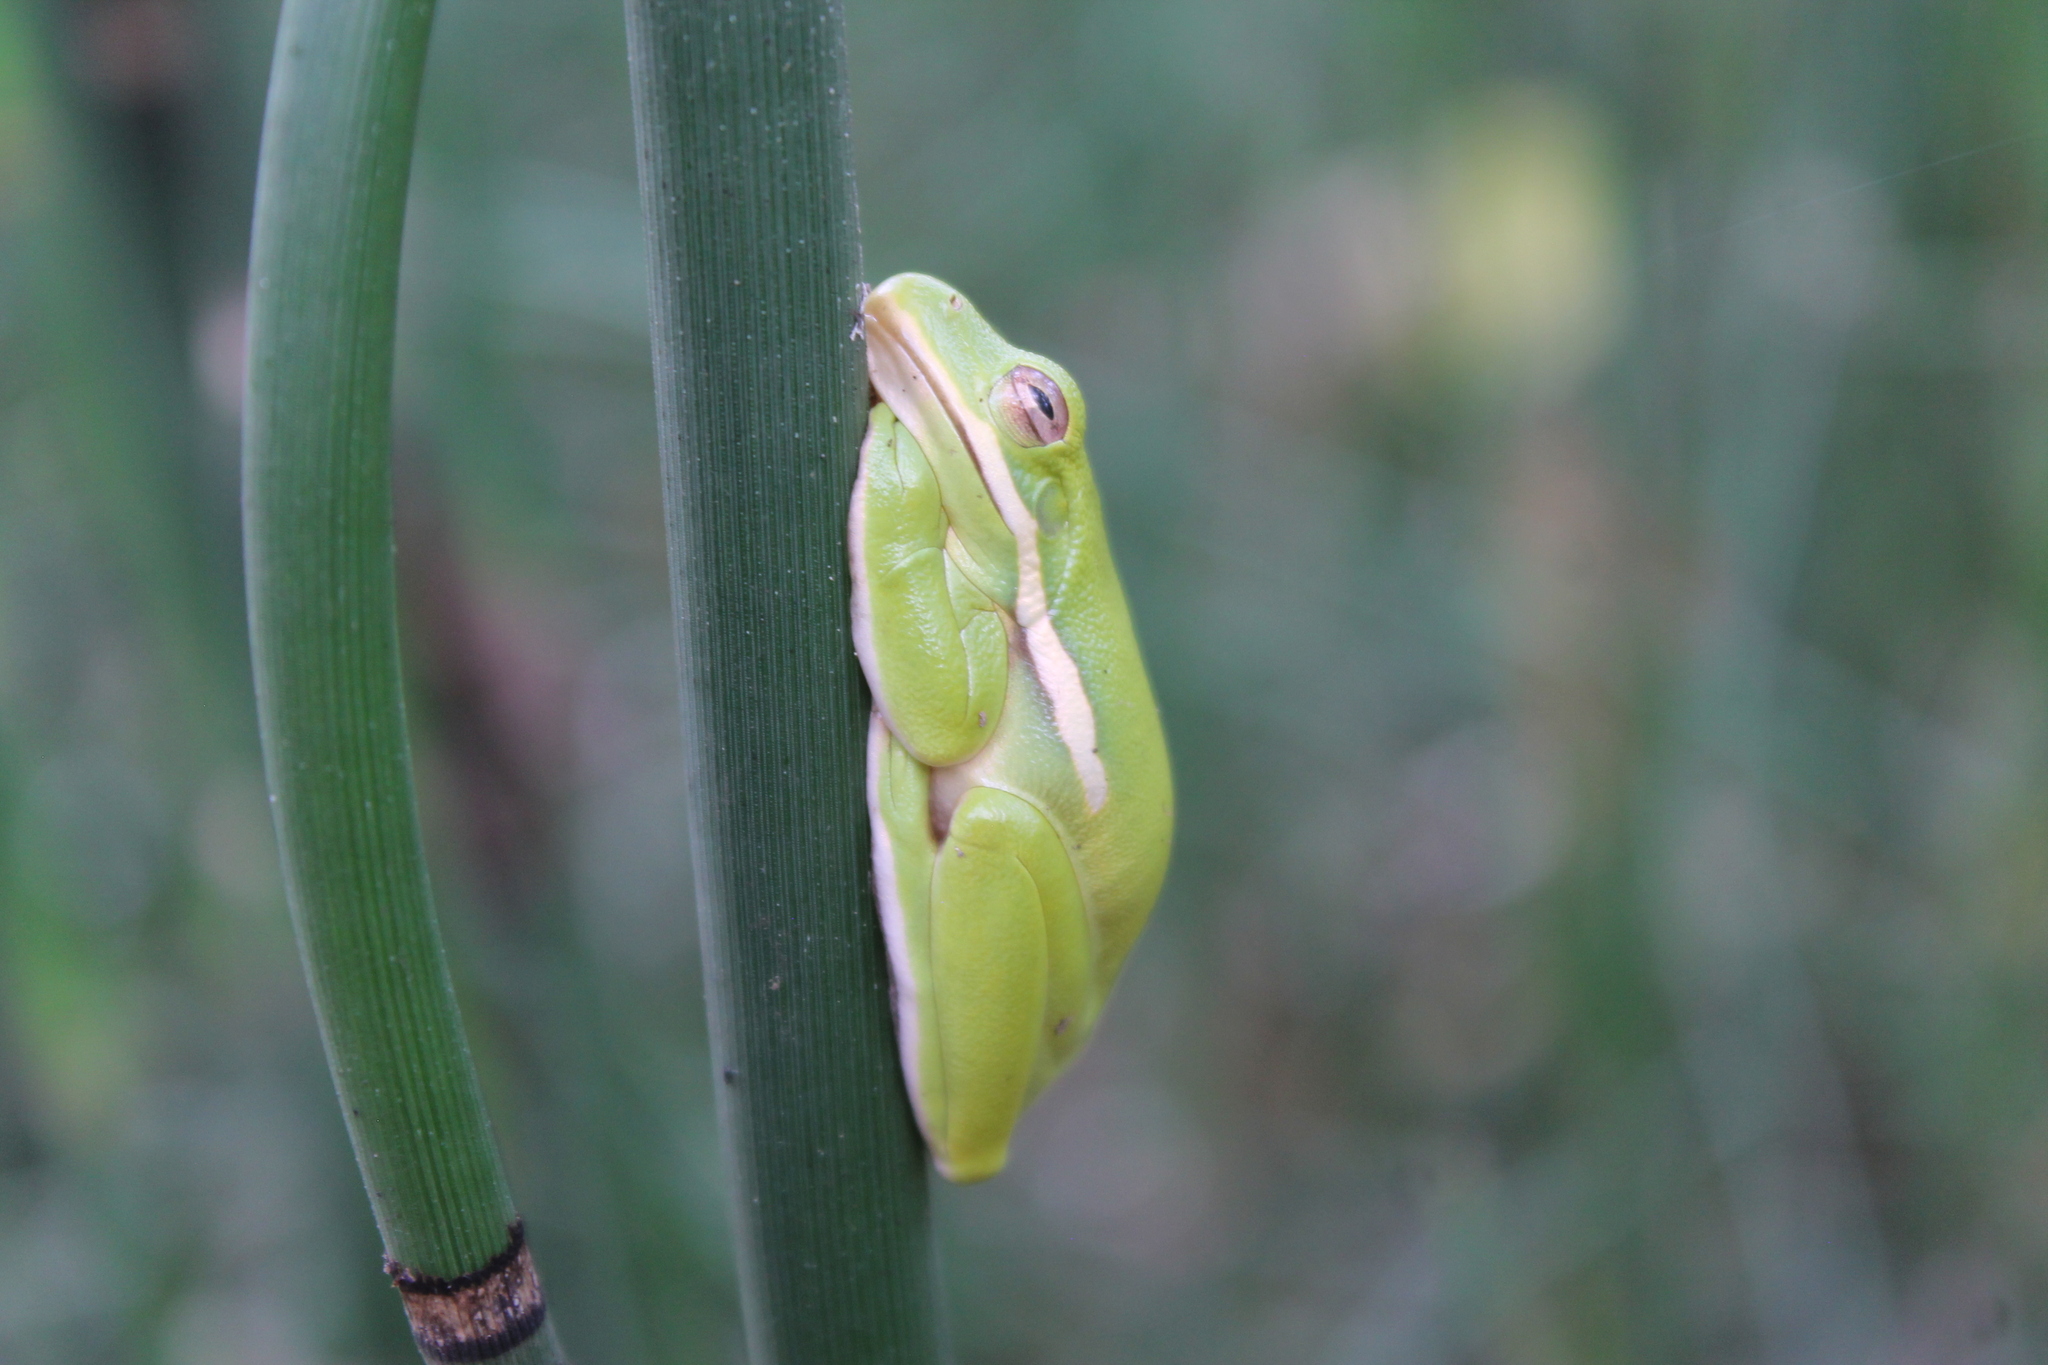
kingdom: Animalia
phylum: Chordata
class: Amphibia
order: Anura
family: Hylidae
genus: Dryophytes
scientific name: Dryophytes cinereus
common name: Green treefrog
